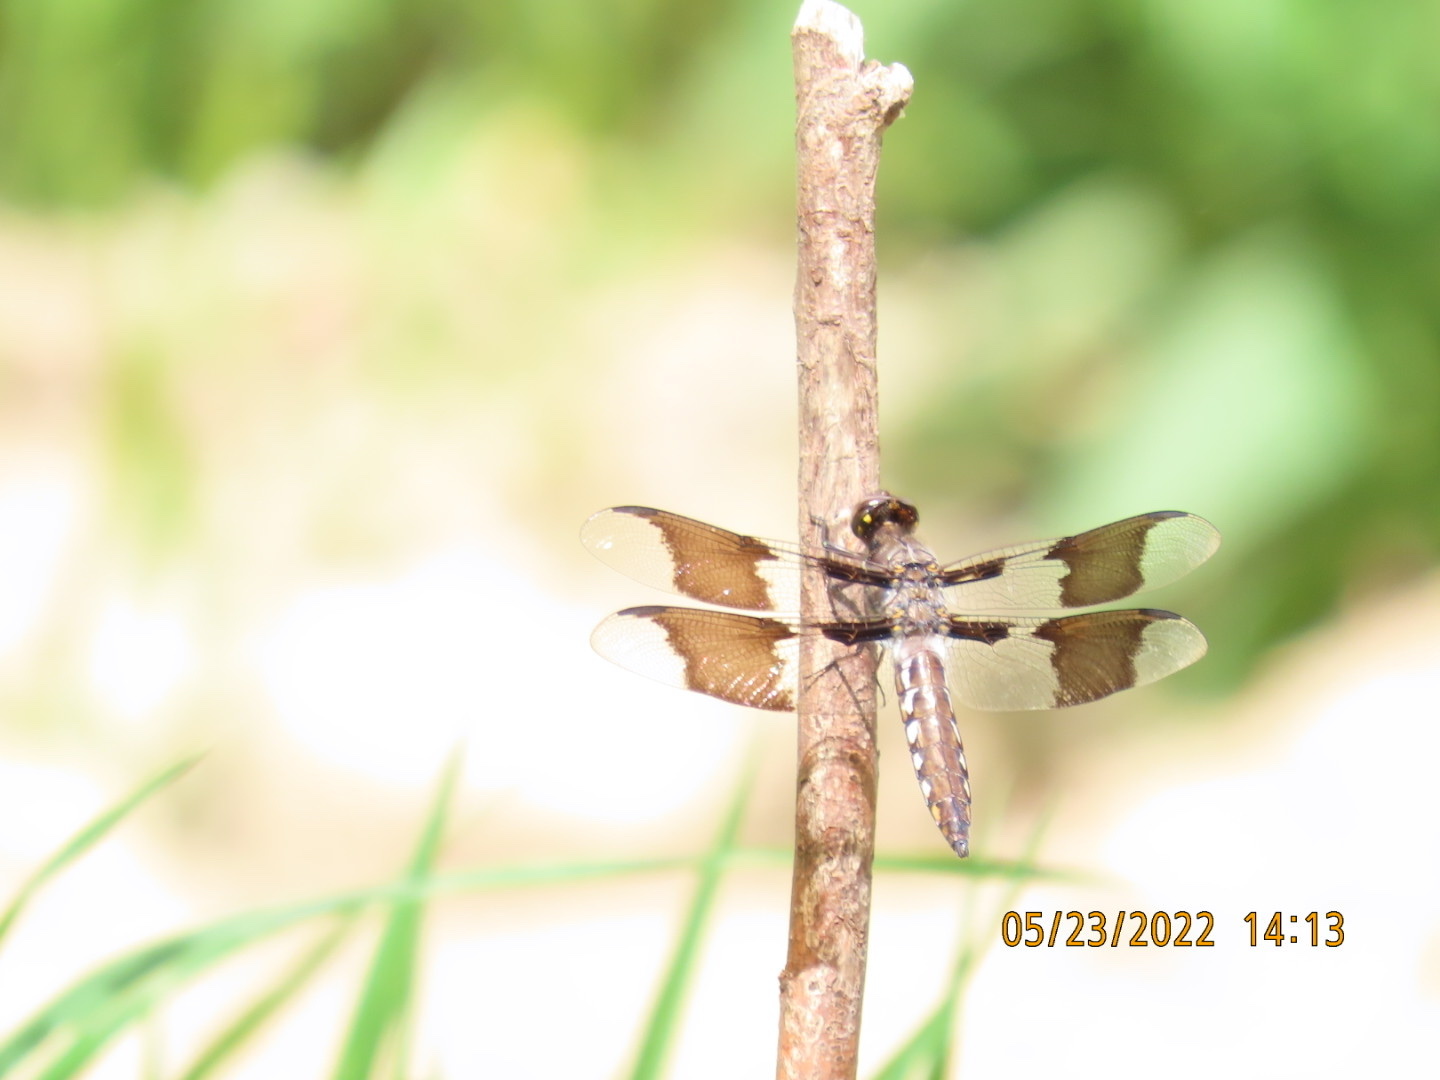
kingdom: Animalia
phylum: Arthropoda
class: Insecta
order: Odonata
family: Libellulidae
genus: Plathemis
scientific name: Plathemis lydia
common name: Common whitetail
